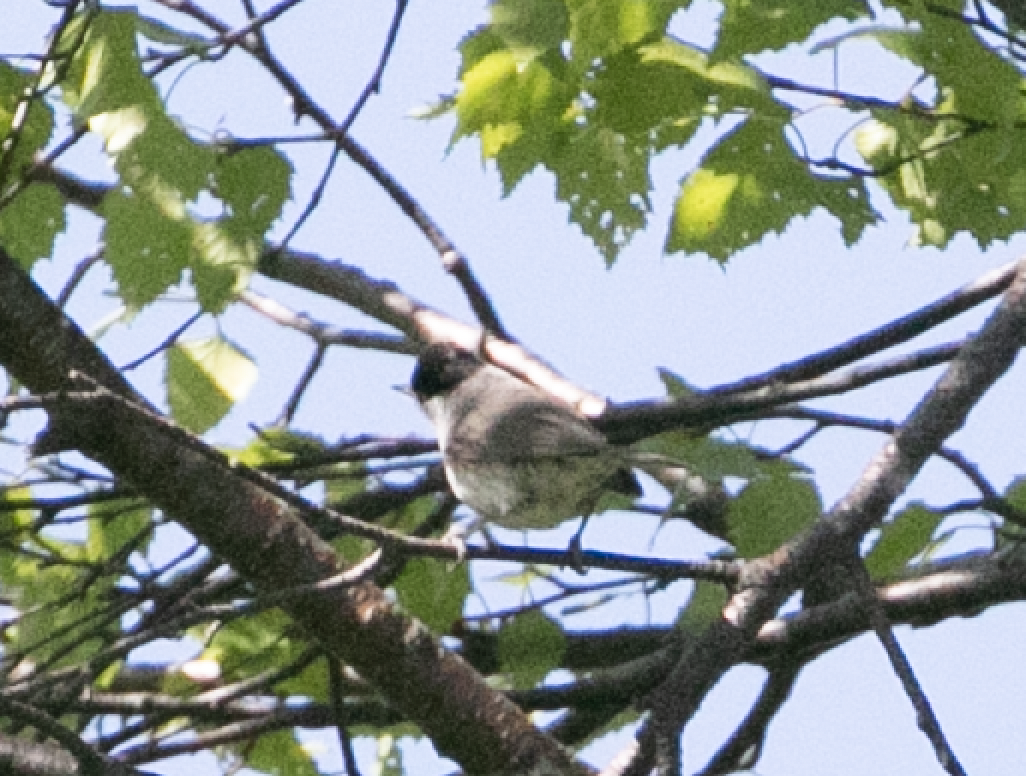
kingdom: Animalia
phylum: Chordata
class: Aves
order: Passeriformes
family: Sylviidae
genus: Sylvia
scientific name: Sylvia atricapilla
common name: Eurasian blackcap
